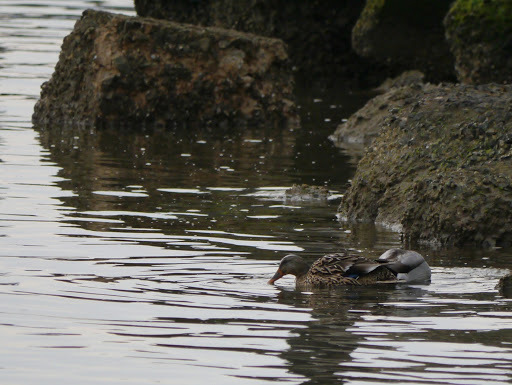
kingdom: Animalia
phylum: Chordata
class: Aves
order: Anseriformes
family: Anatidae
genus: Anas
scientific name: Anas platyrhynchos
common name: Mallard
